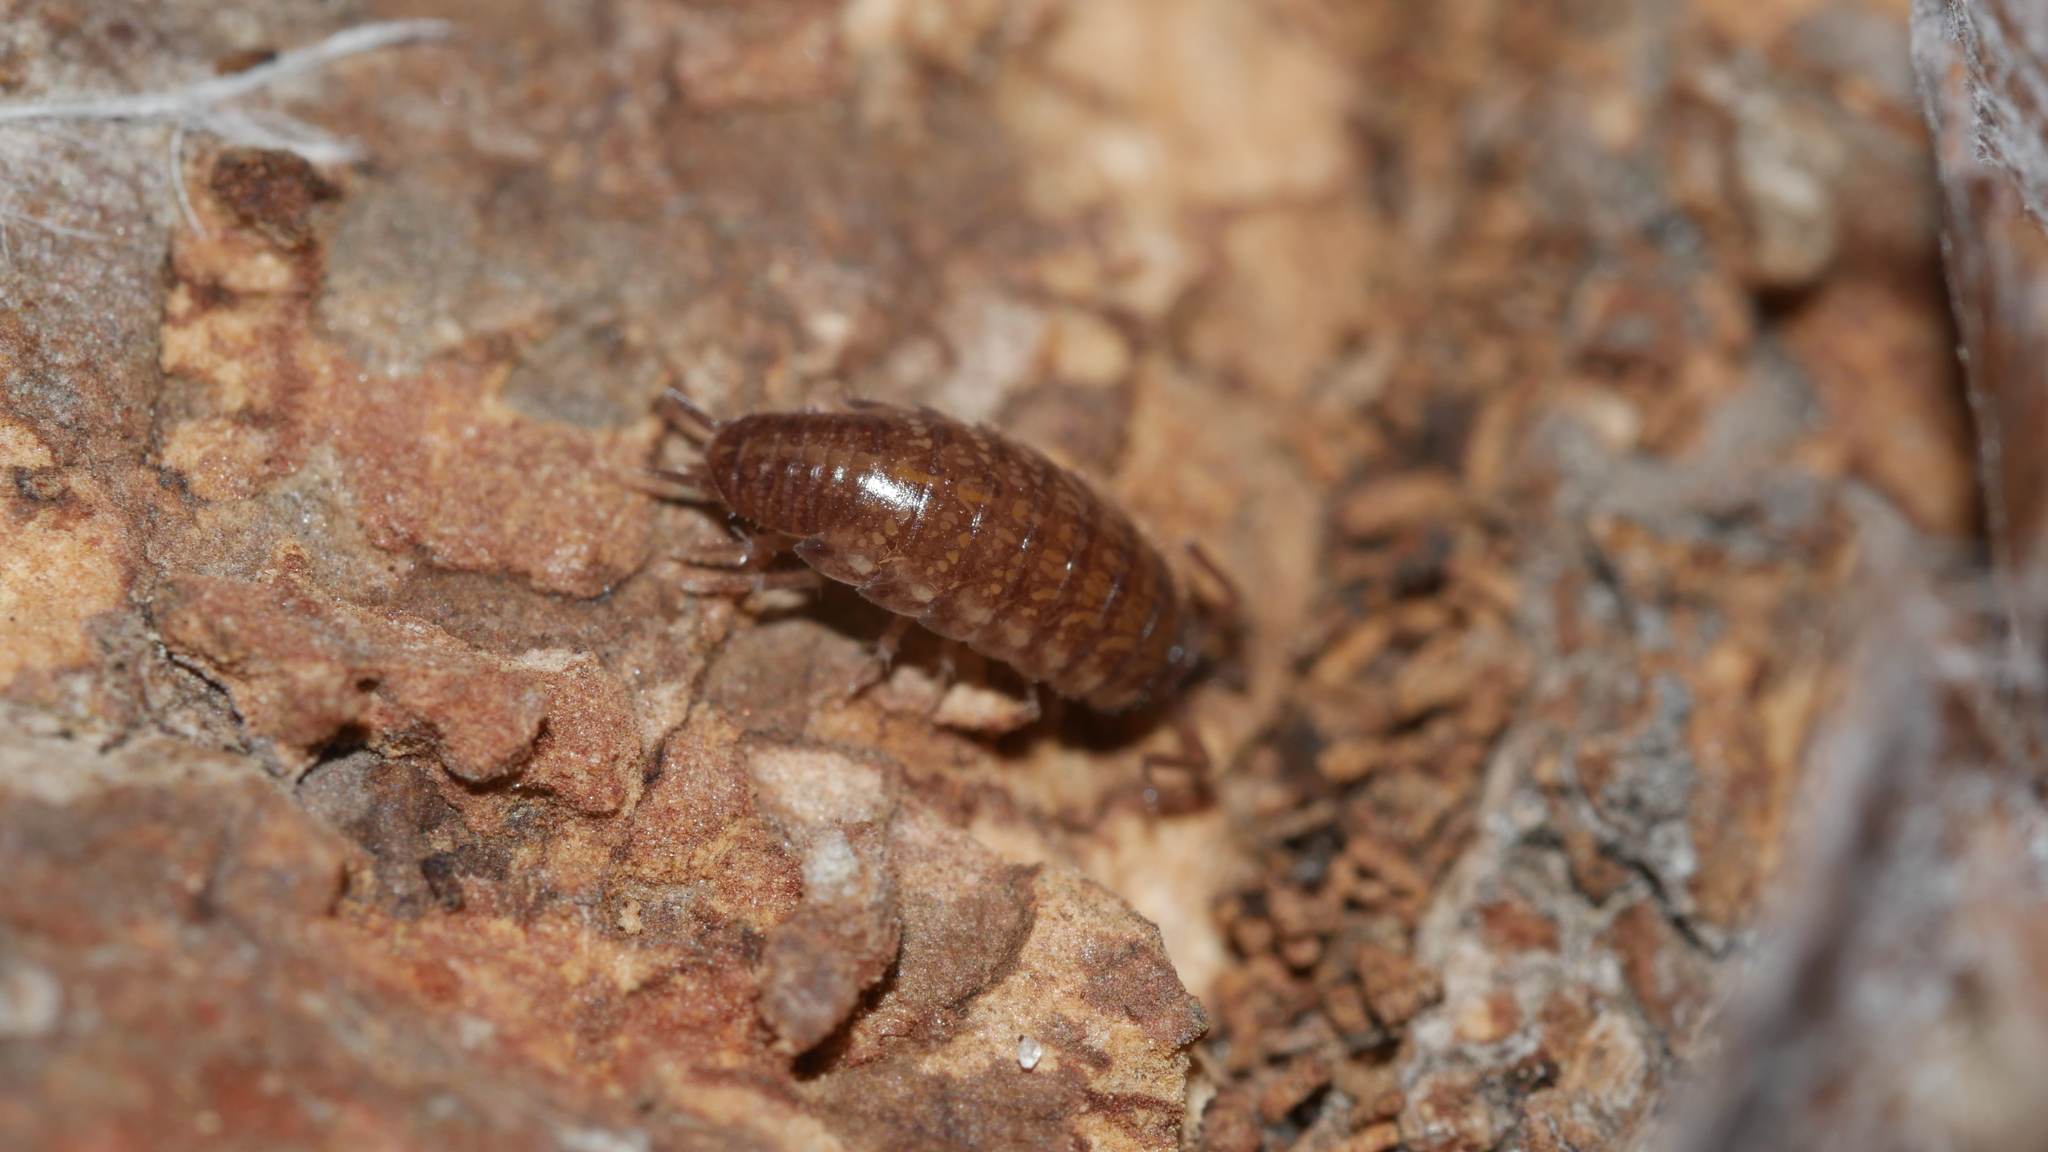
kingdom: Animalia
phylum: Arthropoda
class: Malacostraca
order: Isopoda
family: Philosciidae
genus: Chaetophiloscia
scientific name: Chaetophiloscia sicula
